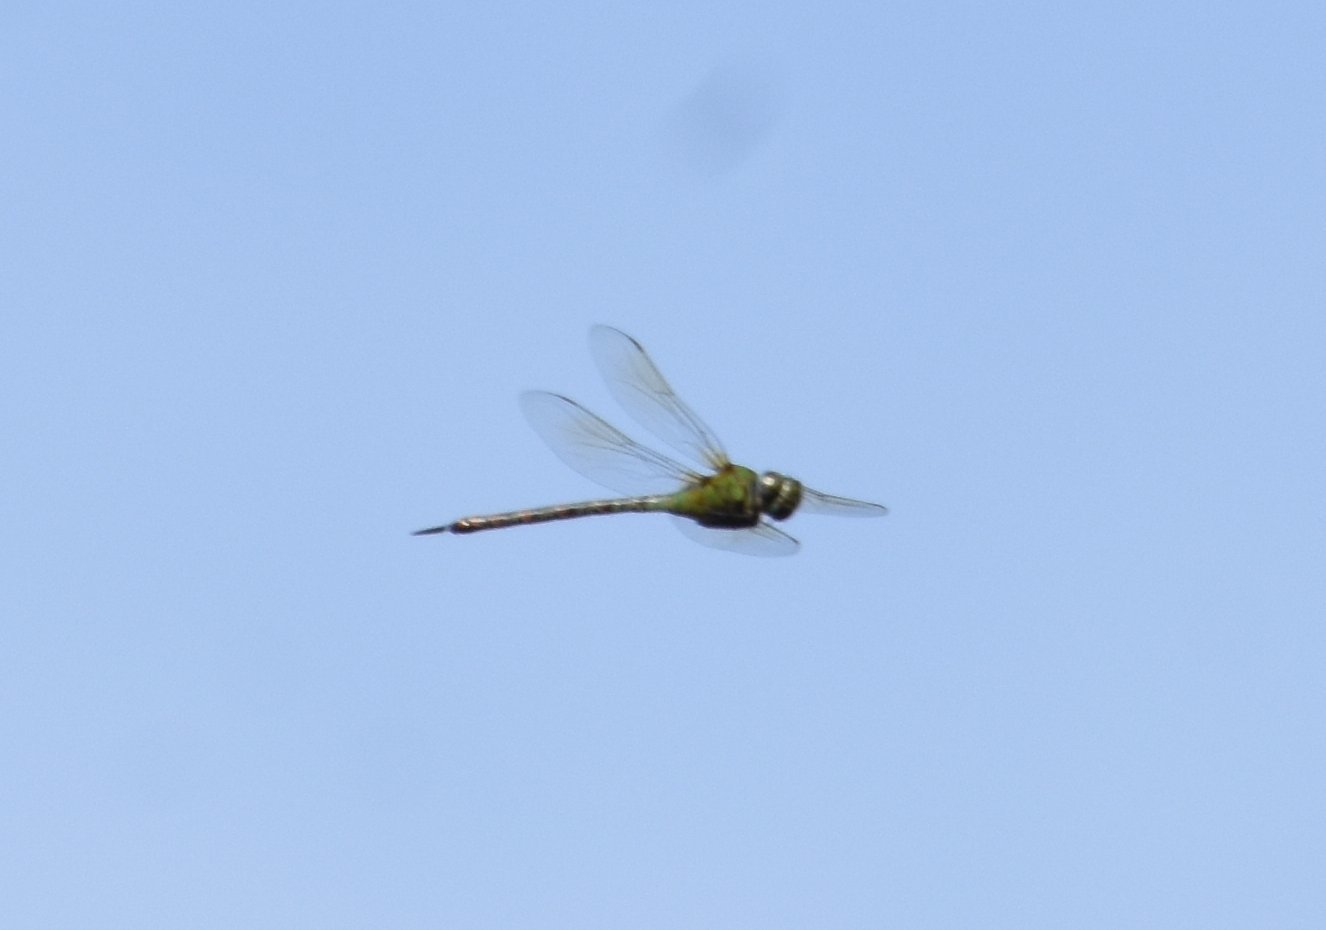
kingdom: Animalia
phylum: Arthropoda
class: Insecta
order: Odonata
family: Aeshnidae
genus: Coryphaeschna
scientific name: Coryphaeschna adnexa
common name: Blue-faced darner
